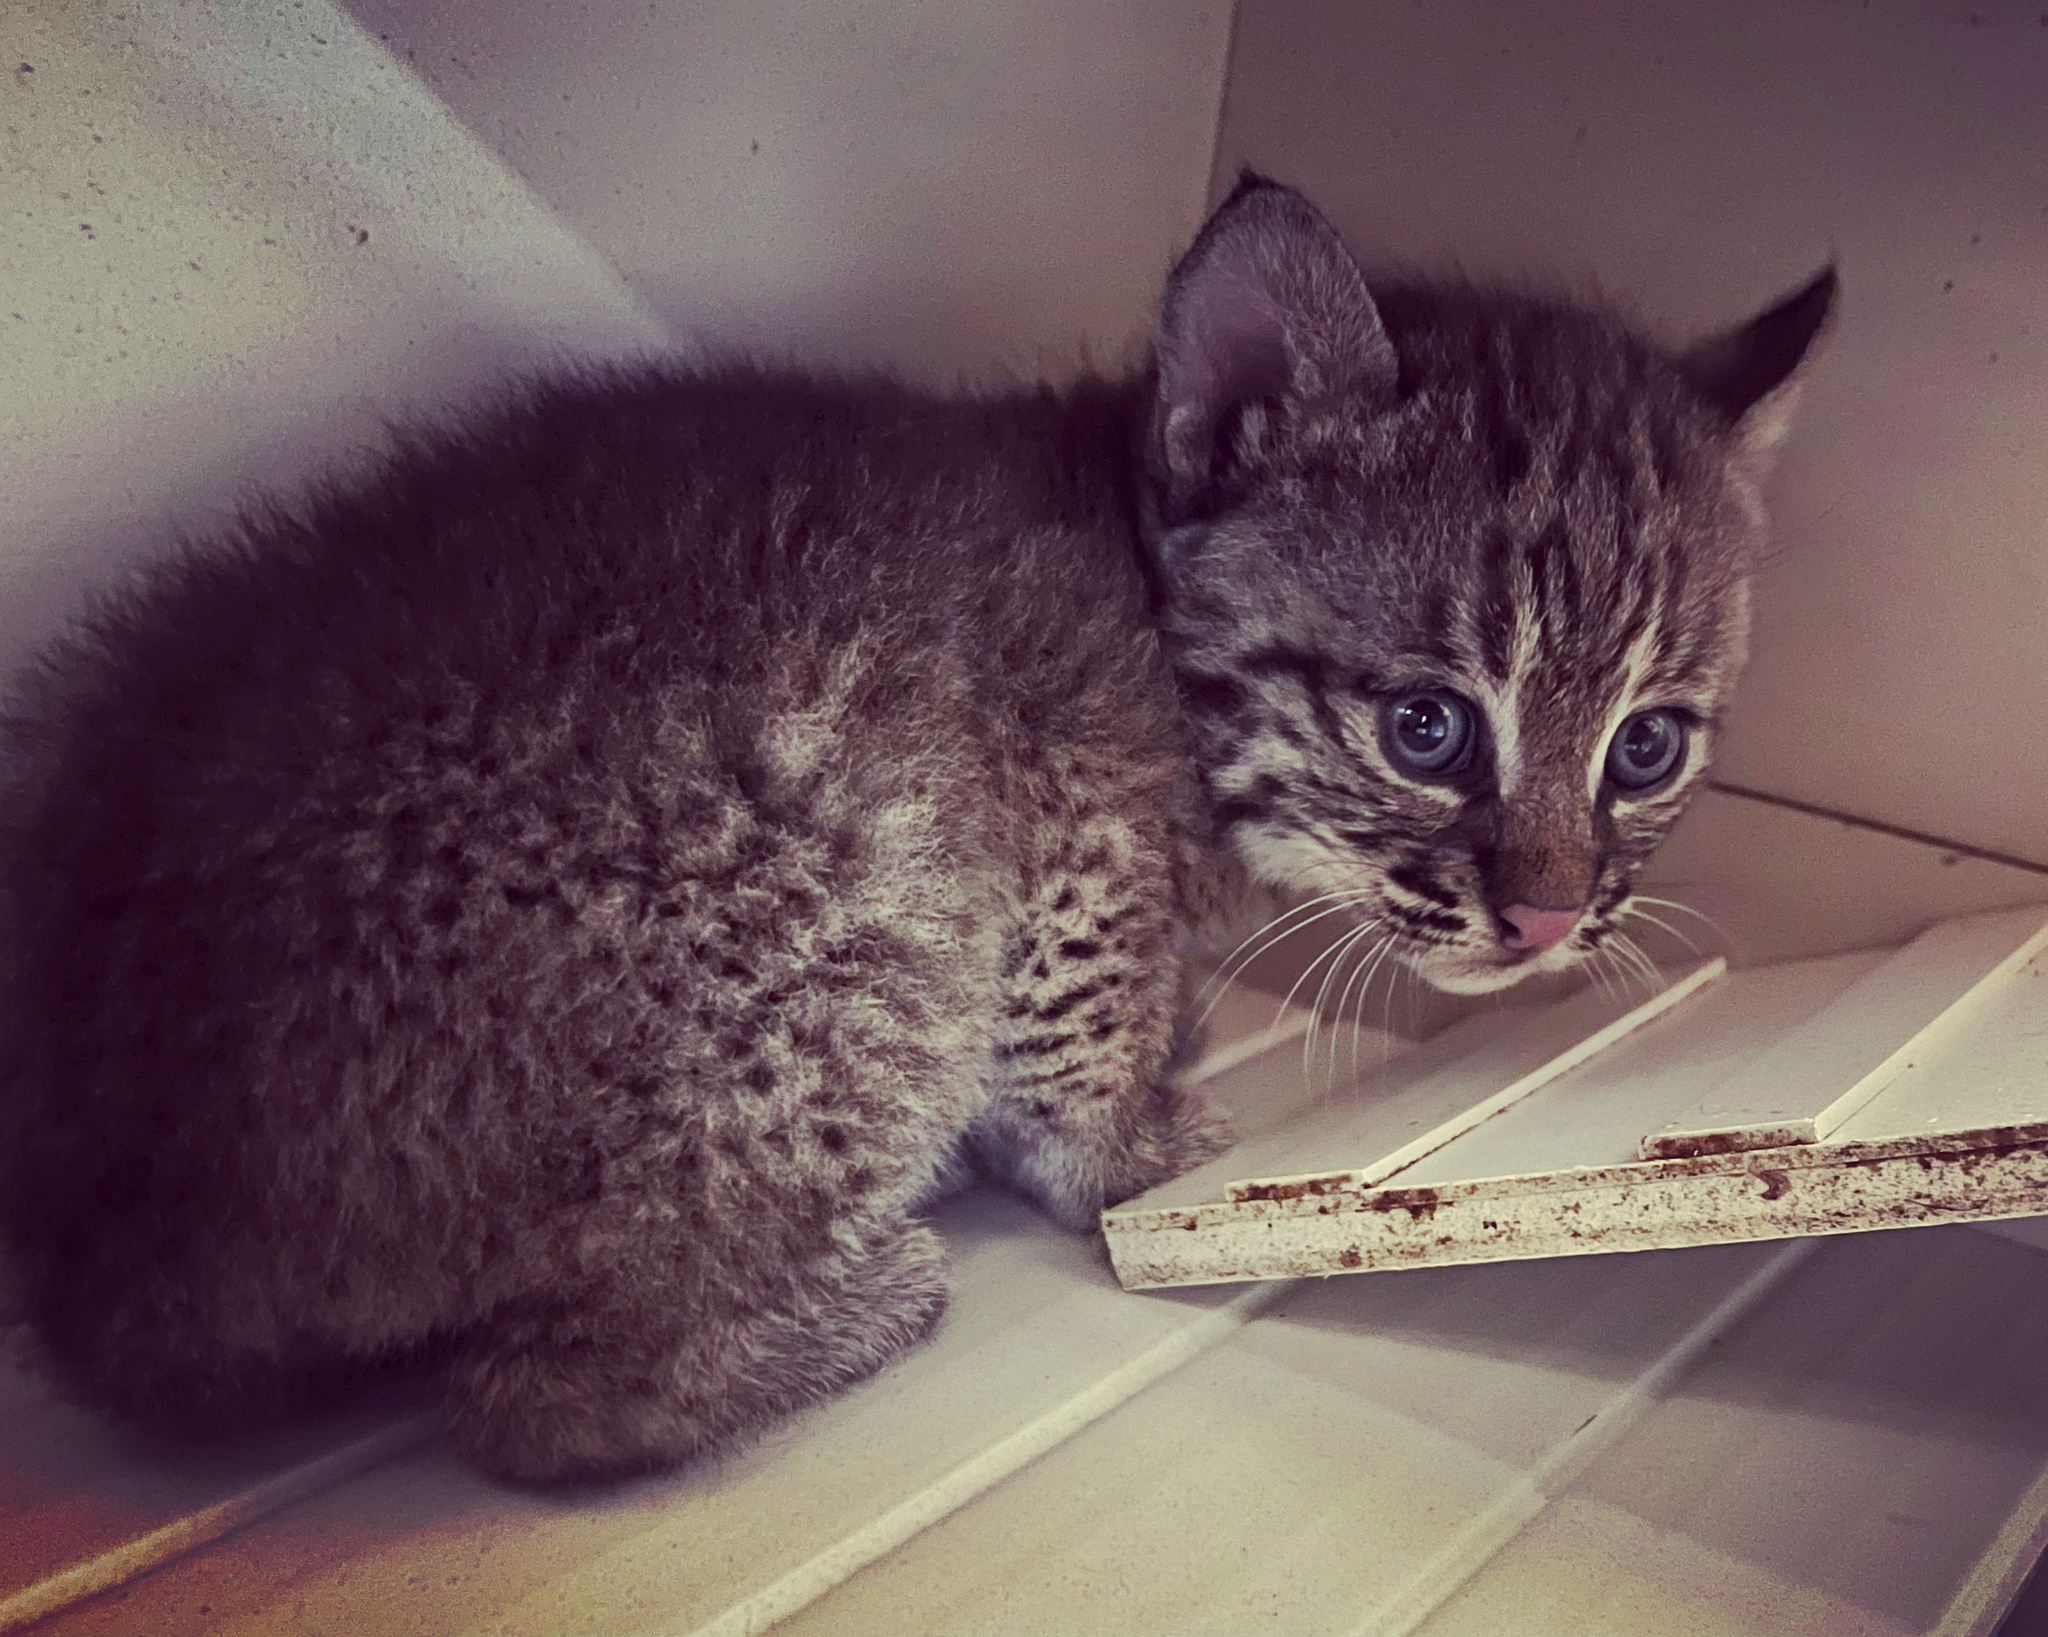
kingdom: Animalia
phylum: Chordata
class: Mammalia
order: Carnivora
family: Felidae
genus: Lynx
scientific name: Lynx rufus
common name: Bobcat
